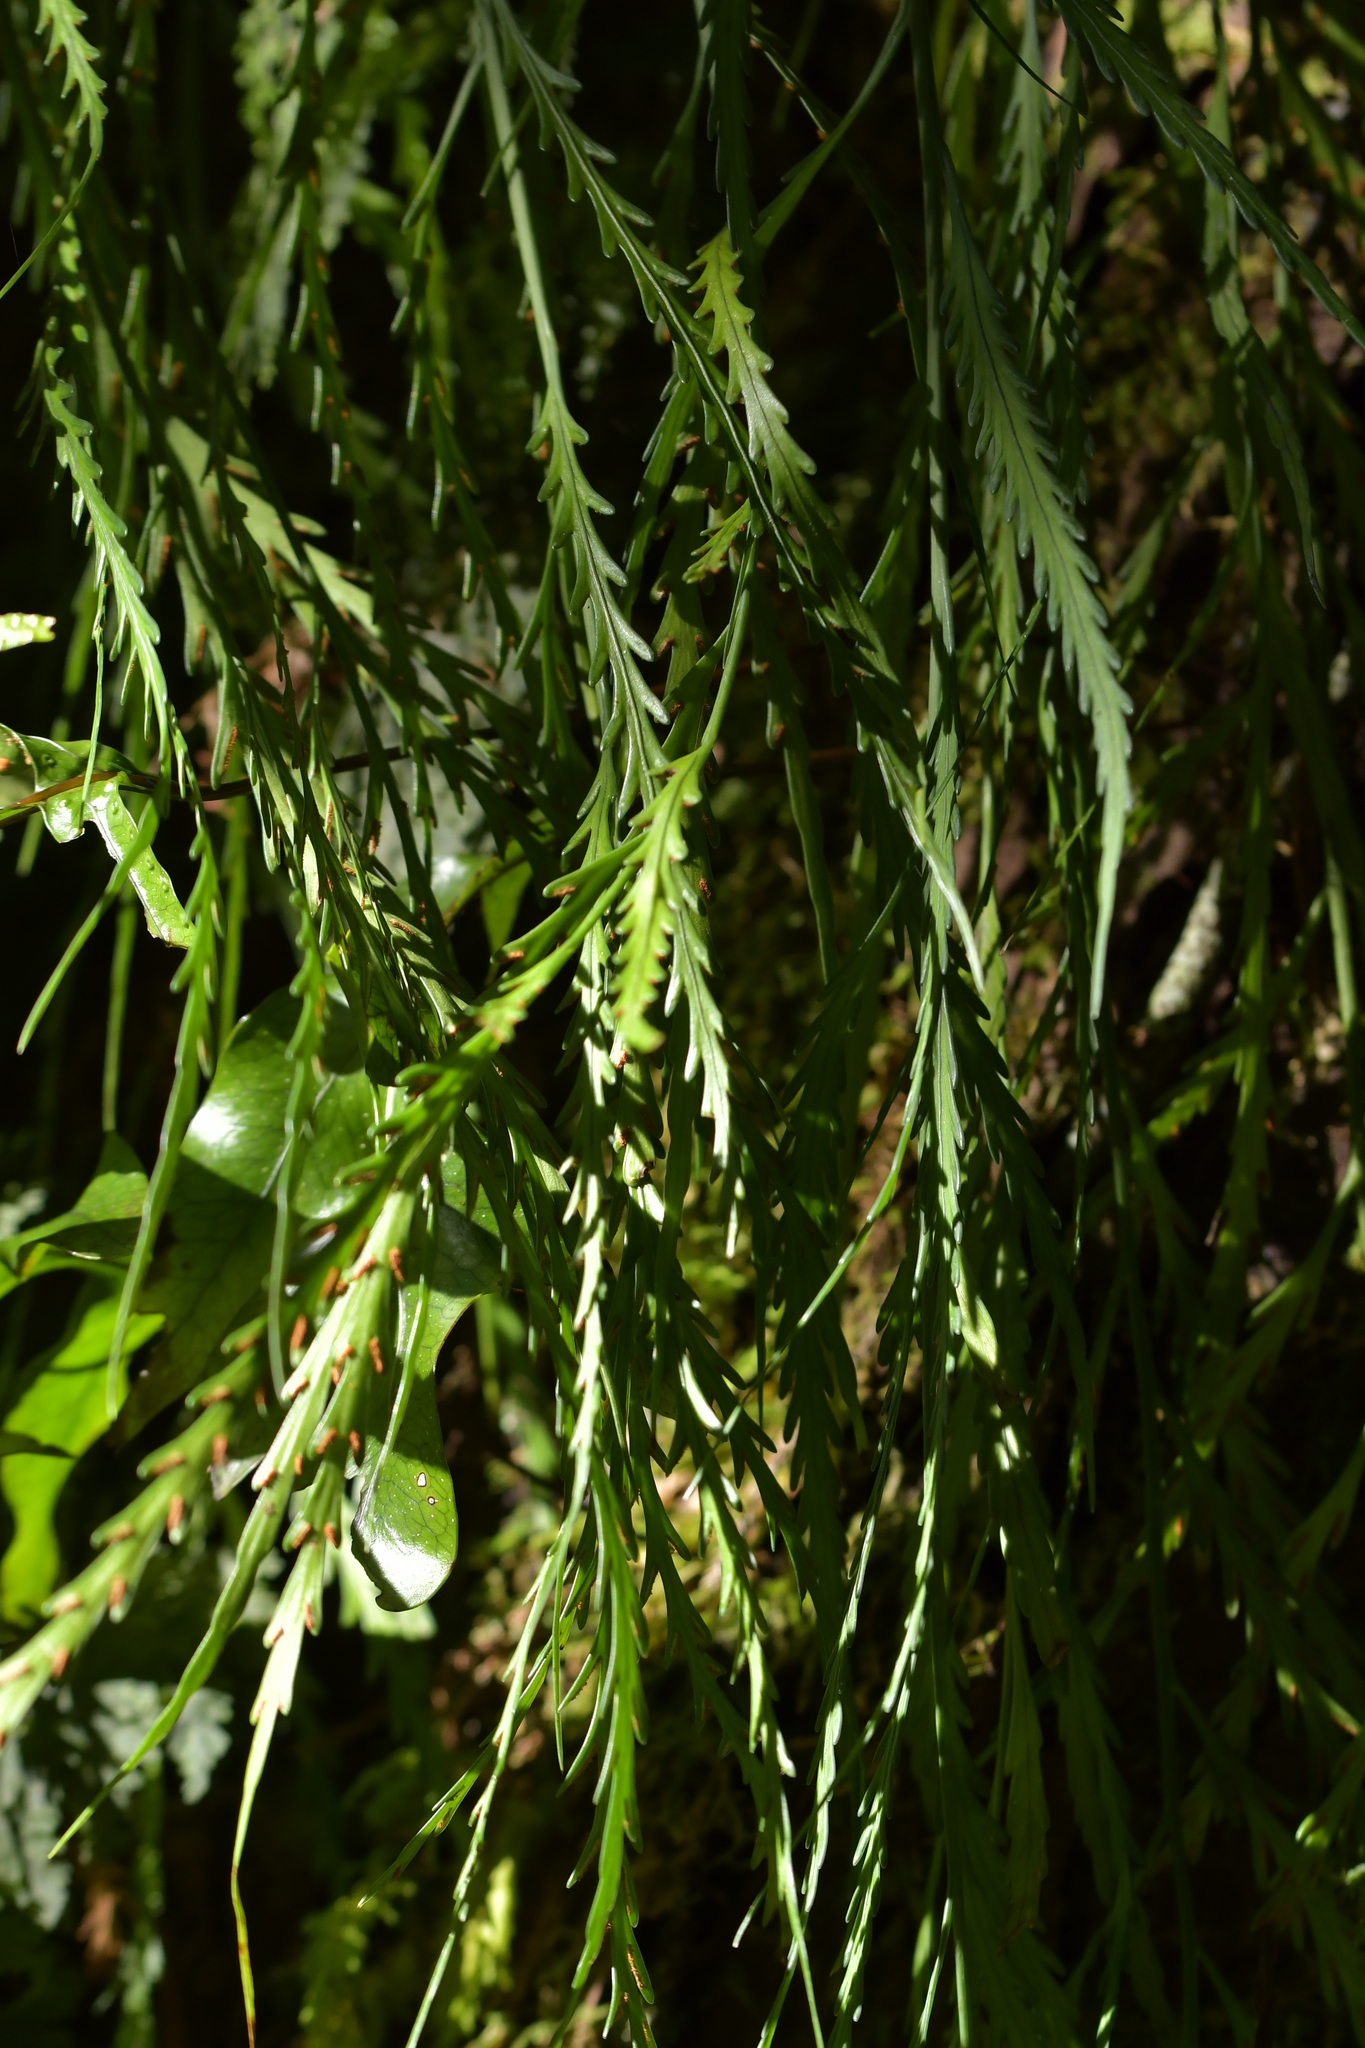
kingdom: Plantae
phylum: Tracheophyta
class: Polypodiopsida
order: Polypodiales
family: Aspleniaceae
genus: Asplenium
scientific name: Asplenium flaccidum
